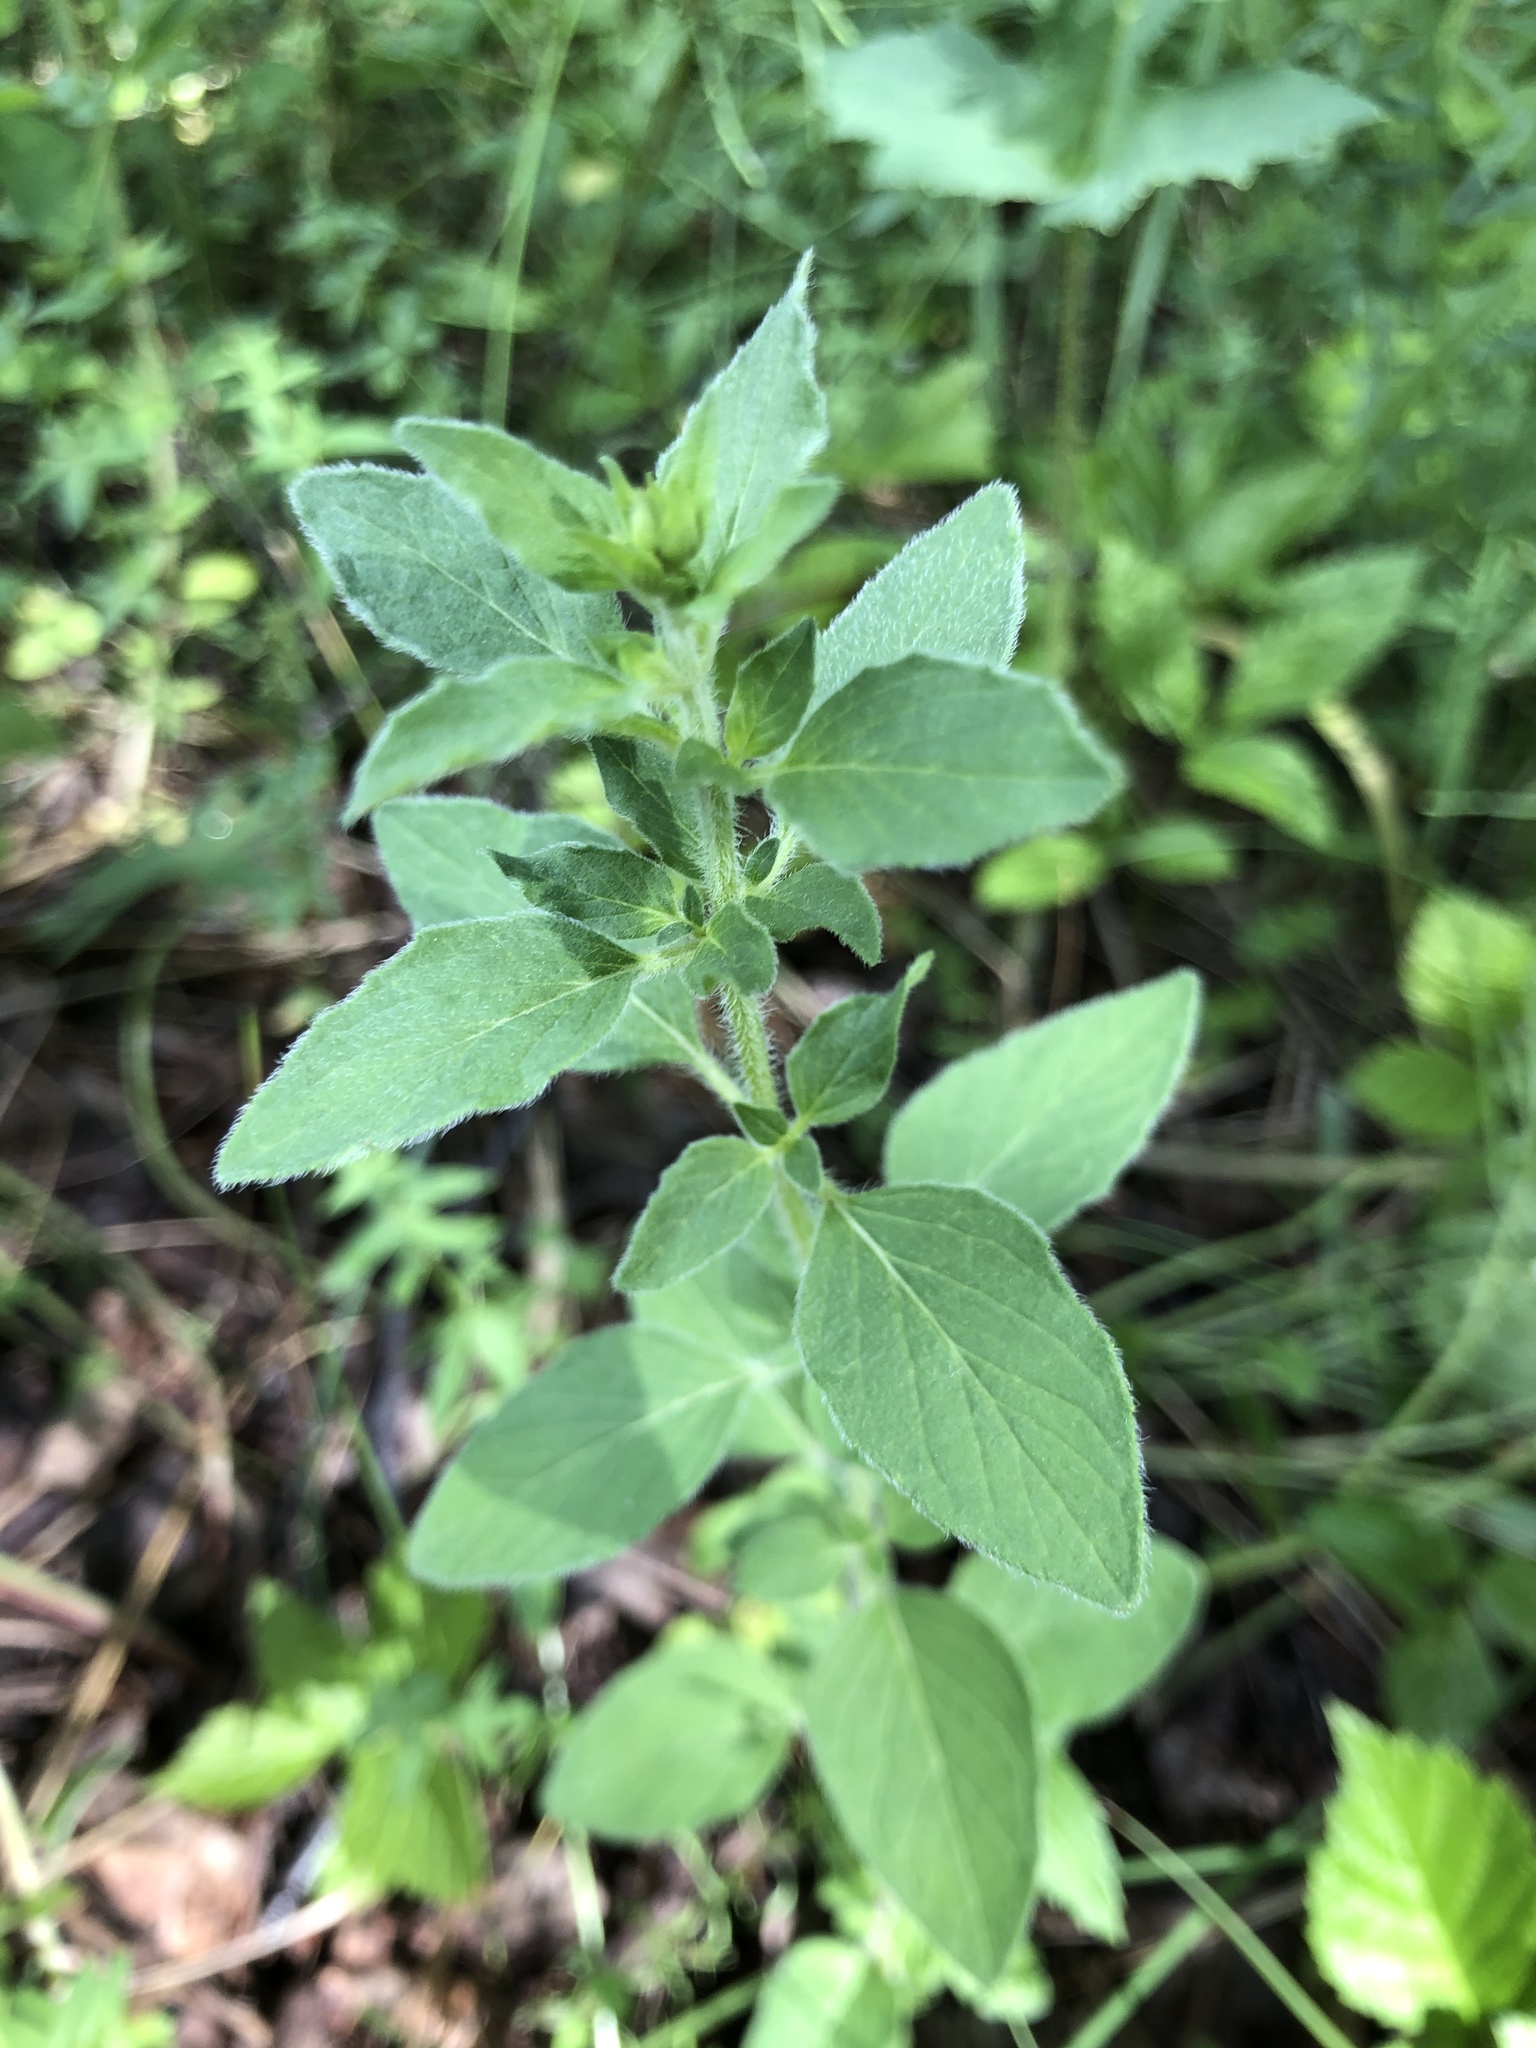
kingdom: Plantae
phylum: Tracheophyta
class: Magnoliopsida
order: Lamiales
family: Lamiaceae
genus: Origanum
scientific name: Origanum vulgare
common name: Wild marjoram
